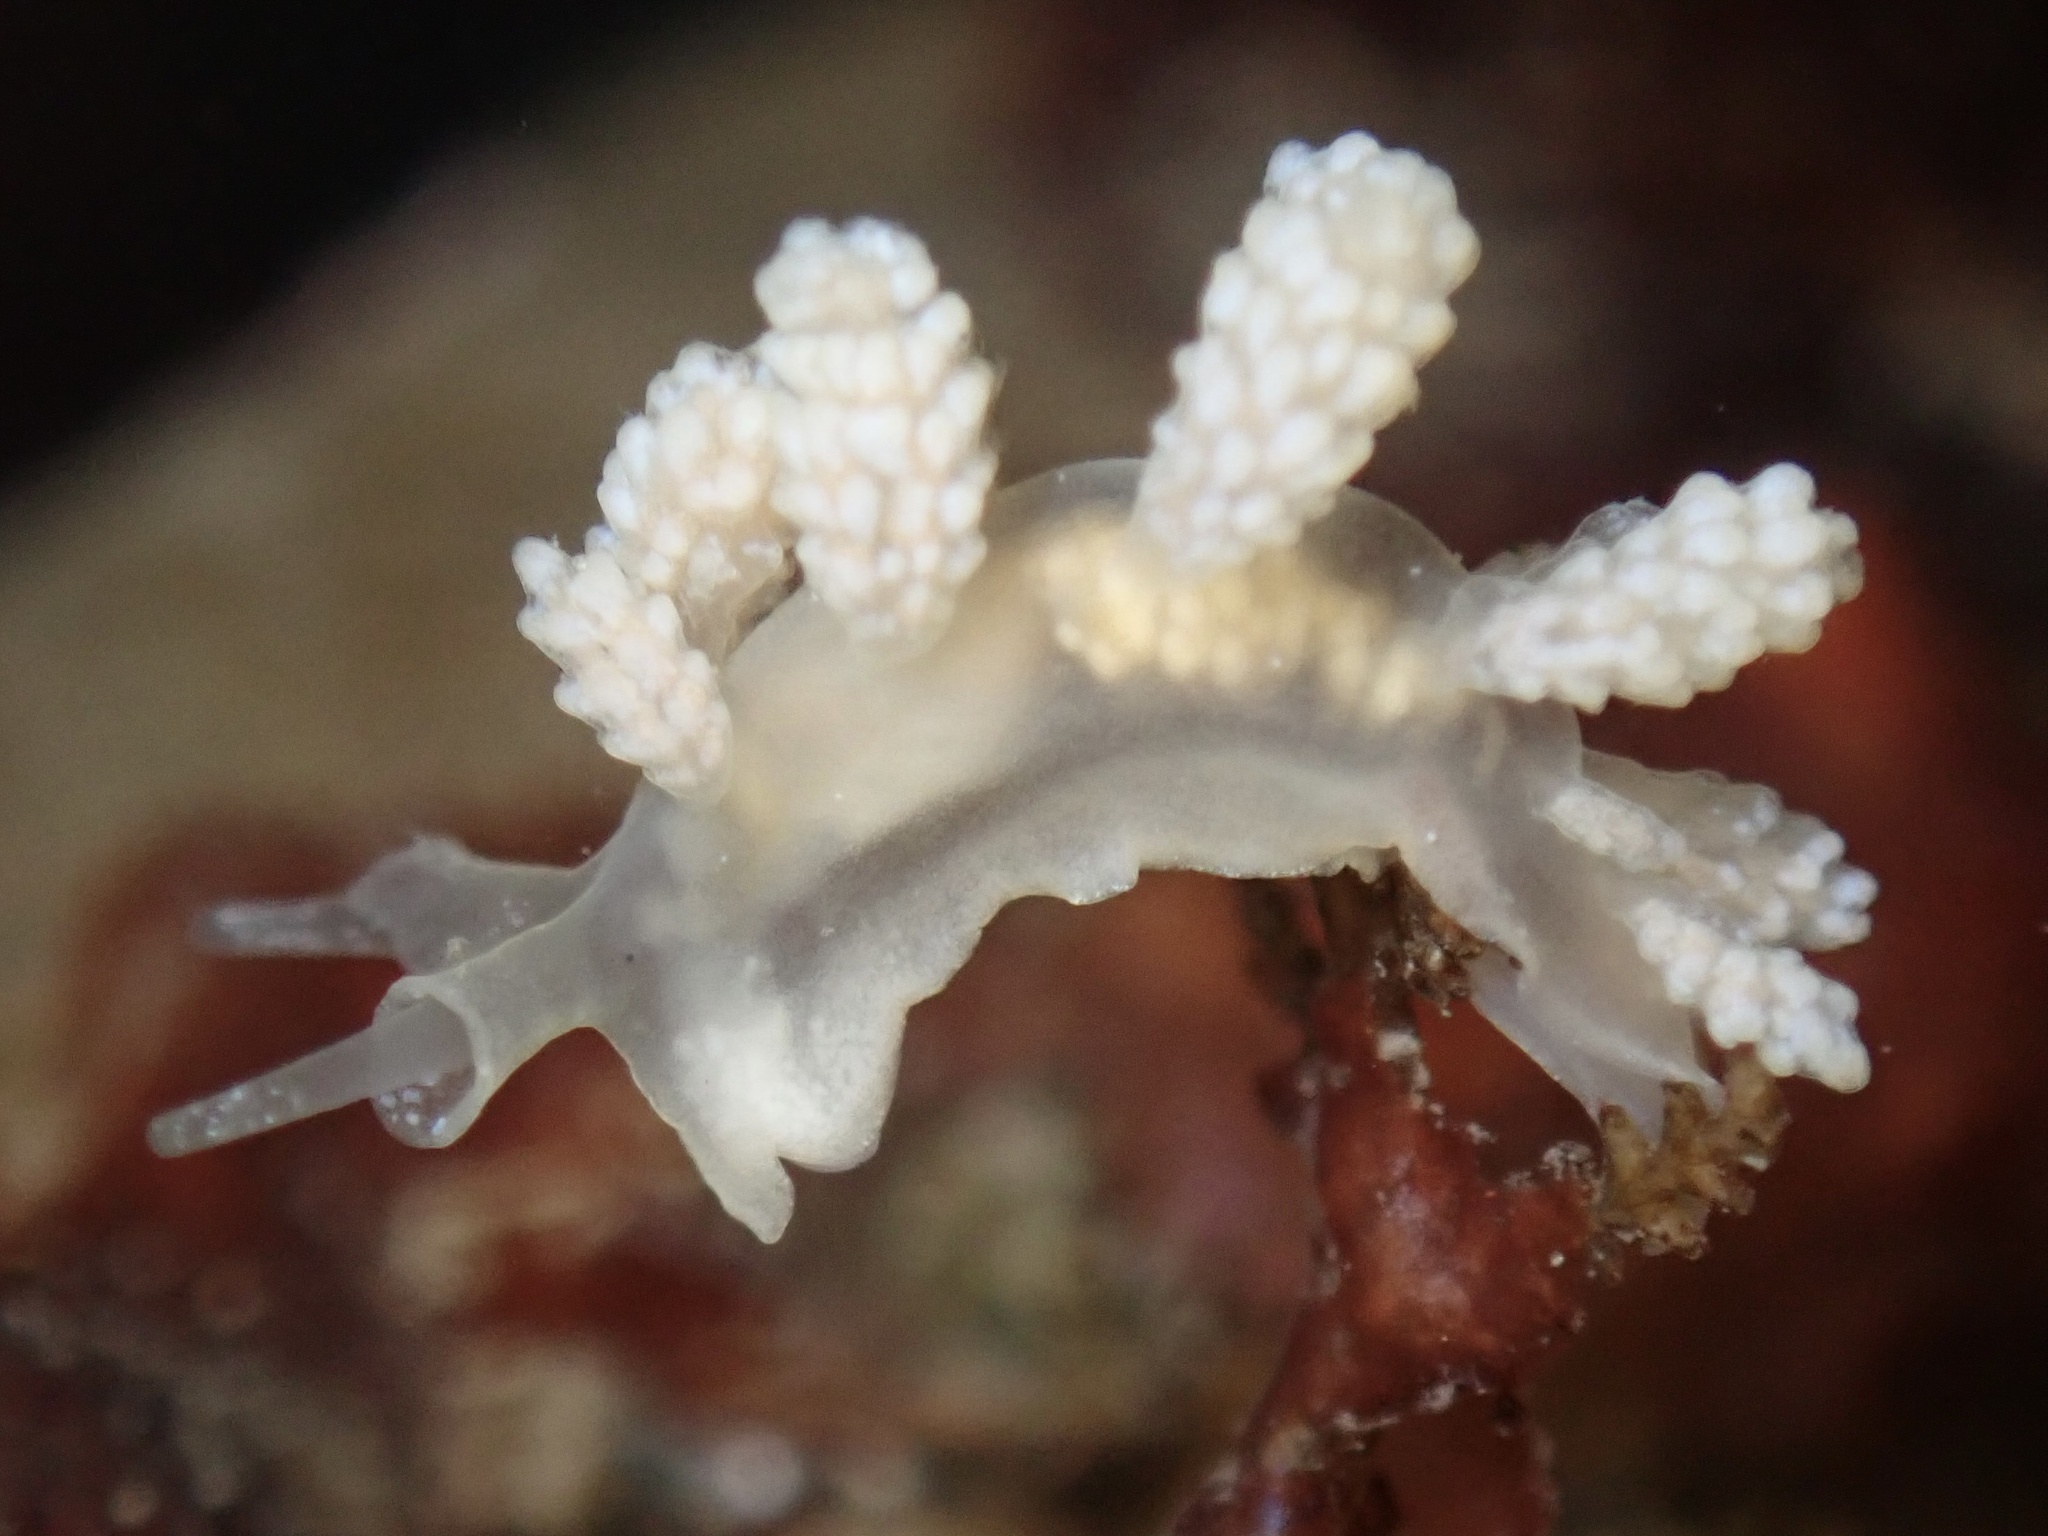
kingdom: Animalia
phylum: Mollusca
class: Gastropoda
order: Nudibranchia
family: Dotidae
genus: Doto
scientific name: Doto amyra
